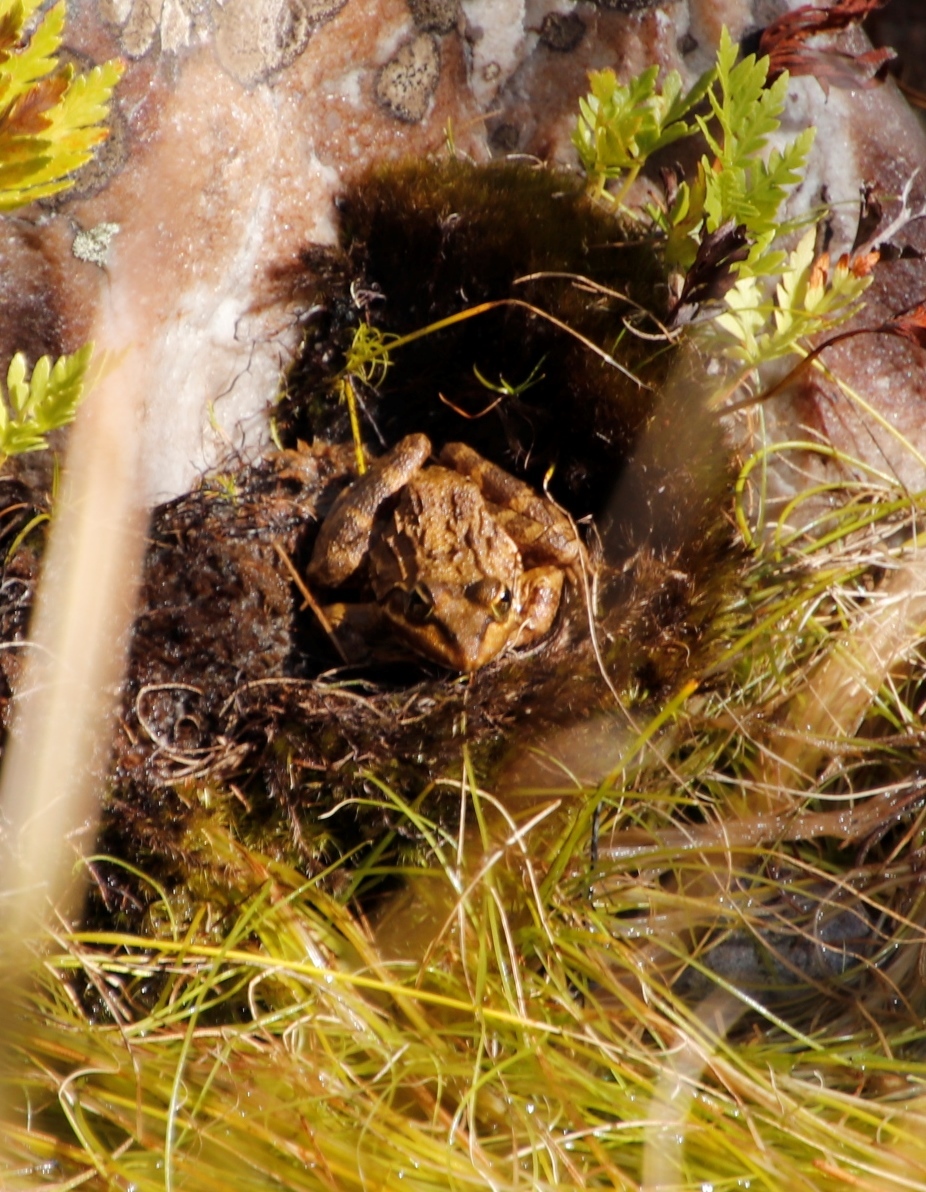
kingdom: Animalia
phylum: Chordata
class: Amphibia
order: Anura
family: Pyxicephalidae
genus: Amietia
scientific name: Amietia fuscigula
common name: Cape rana
